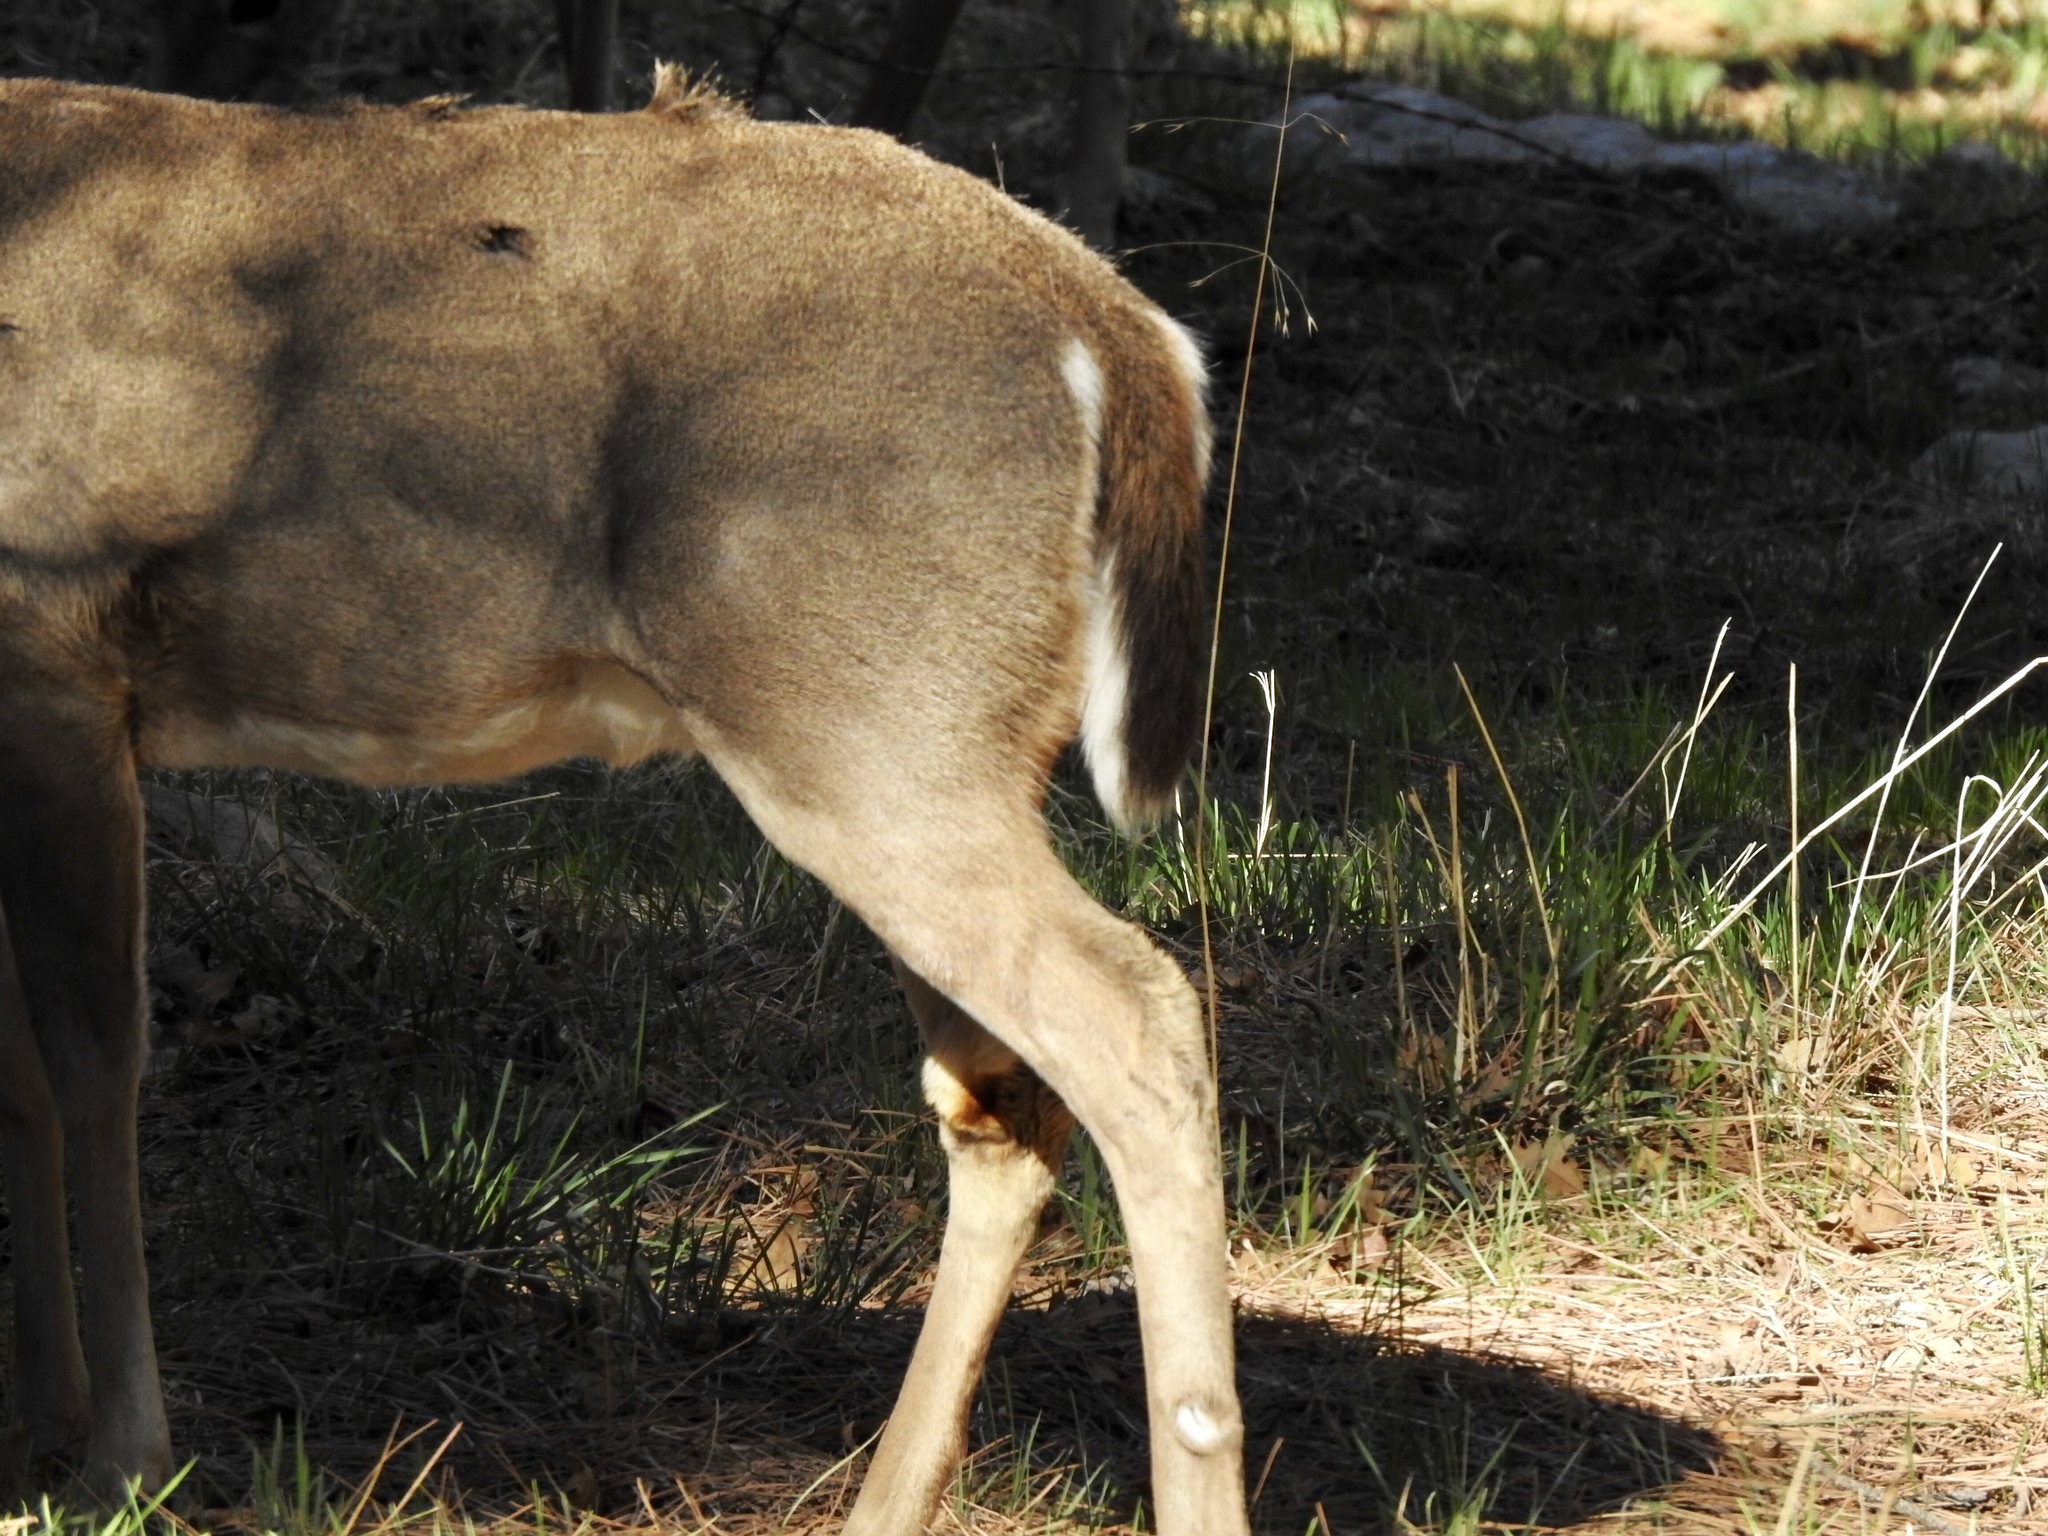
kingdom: Animalia
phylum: Chordata
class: Mammalia
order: Artiodactyla
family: Cervidae
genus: Odocoileus
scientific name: Odocoileus virginianus
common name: White-tailed deer
